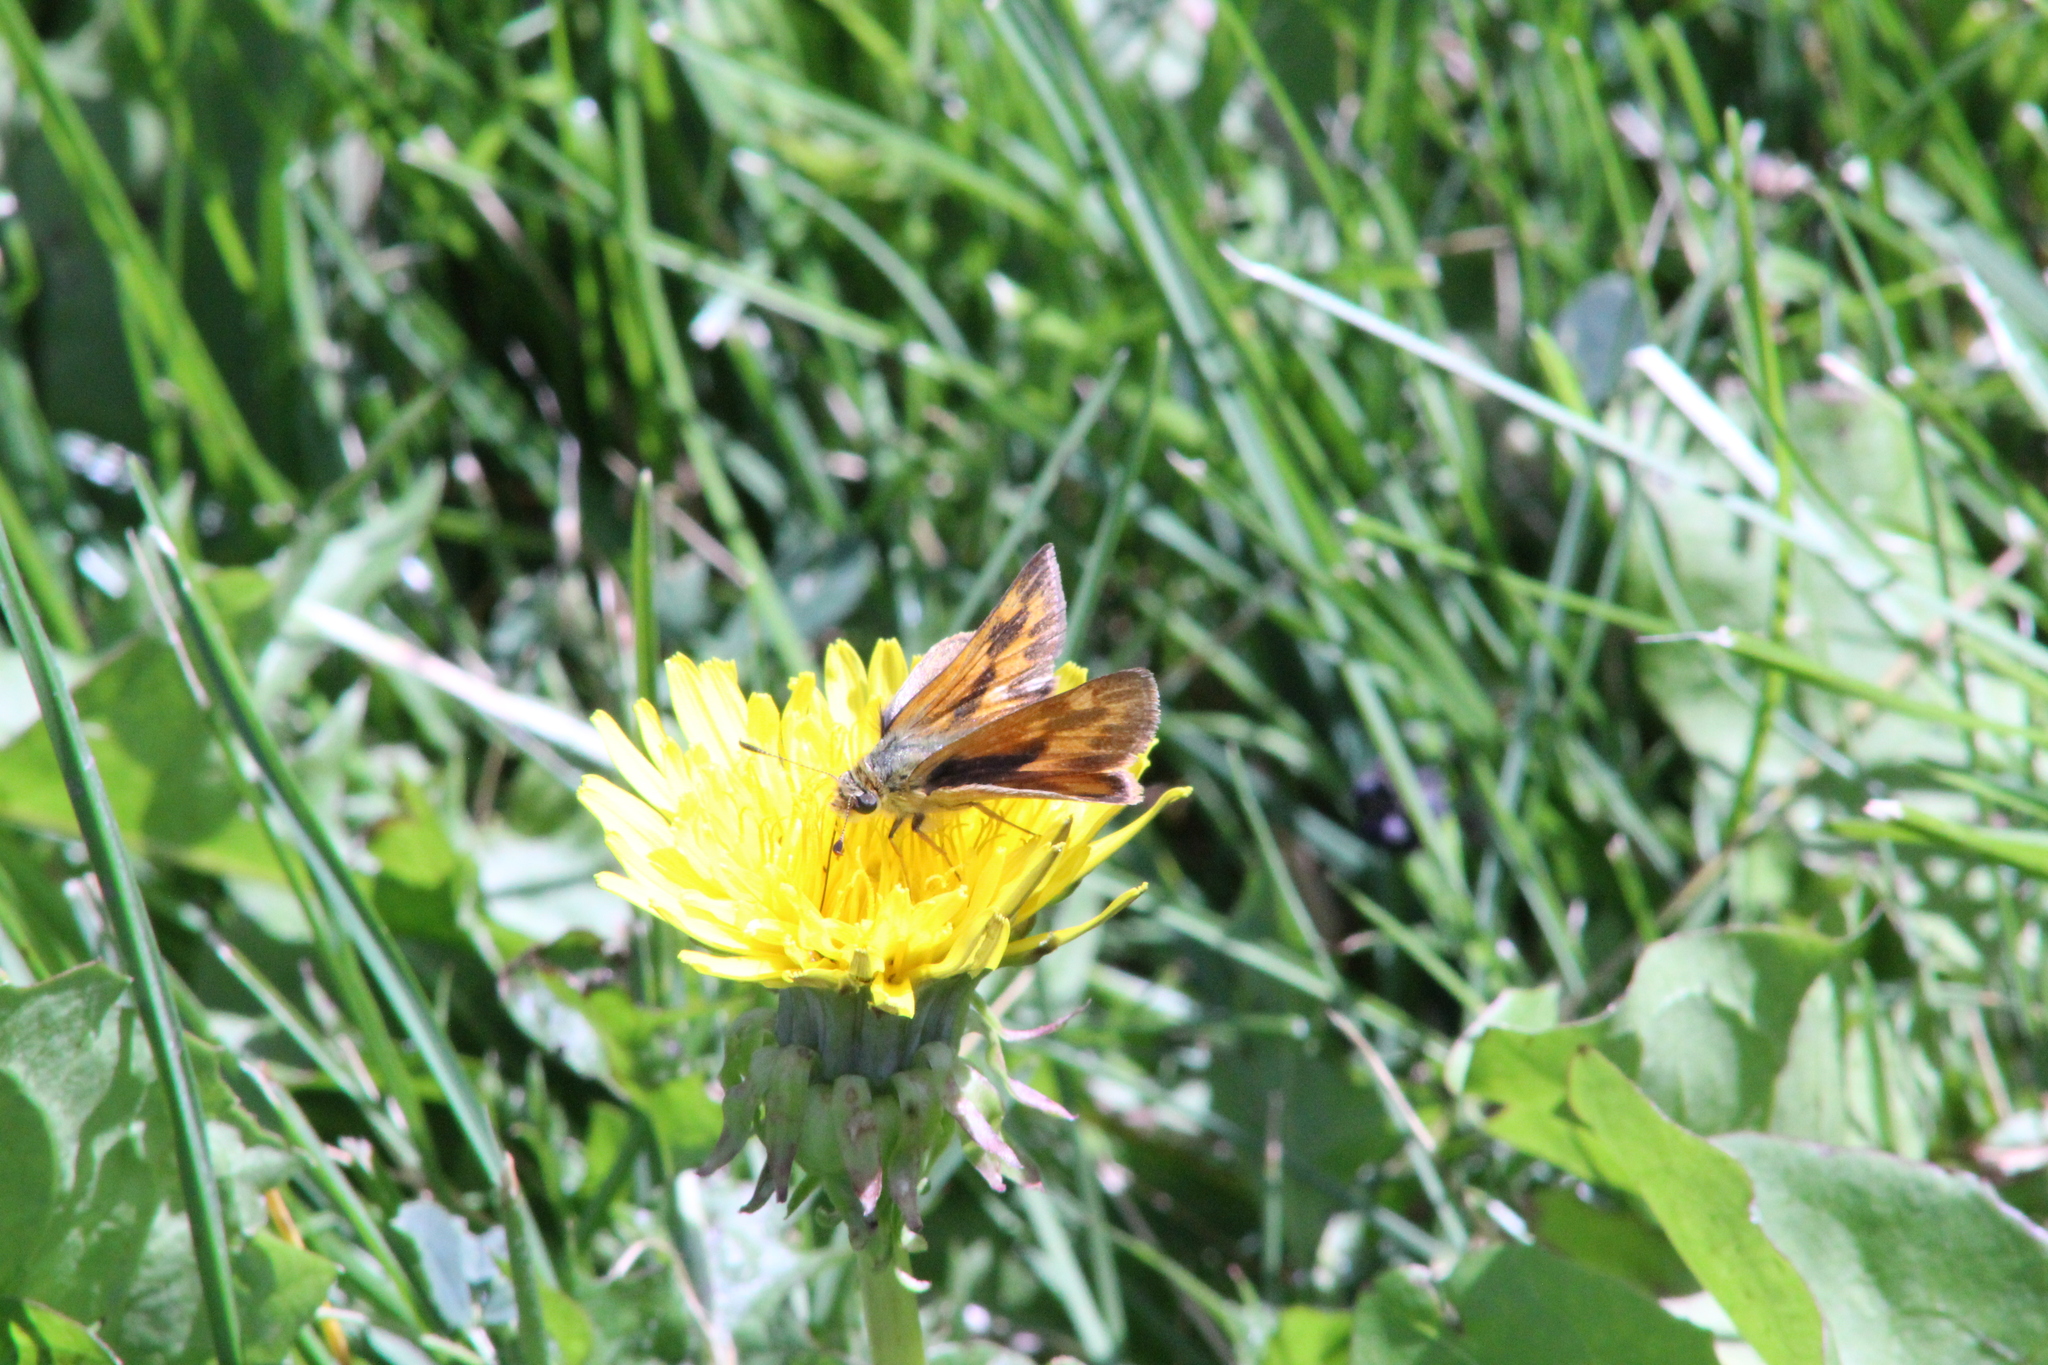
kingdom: Animalia
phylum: Arthropoda
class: Insecta
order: Lepidoptera
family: Hesperiidae
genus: Ochlodes
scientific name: Ochlodes sylvanoides
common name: Woodland skipper
